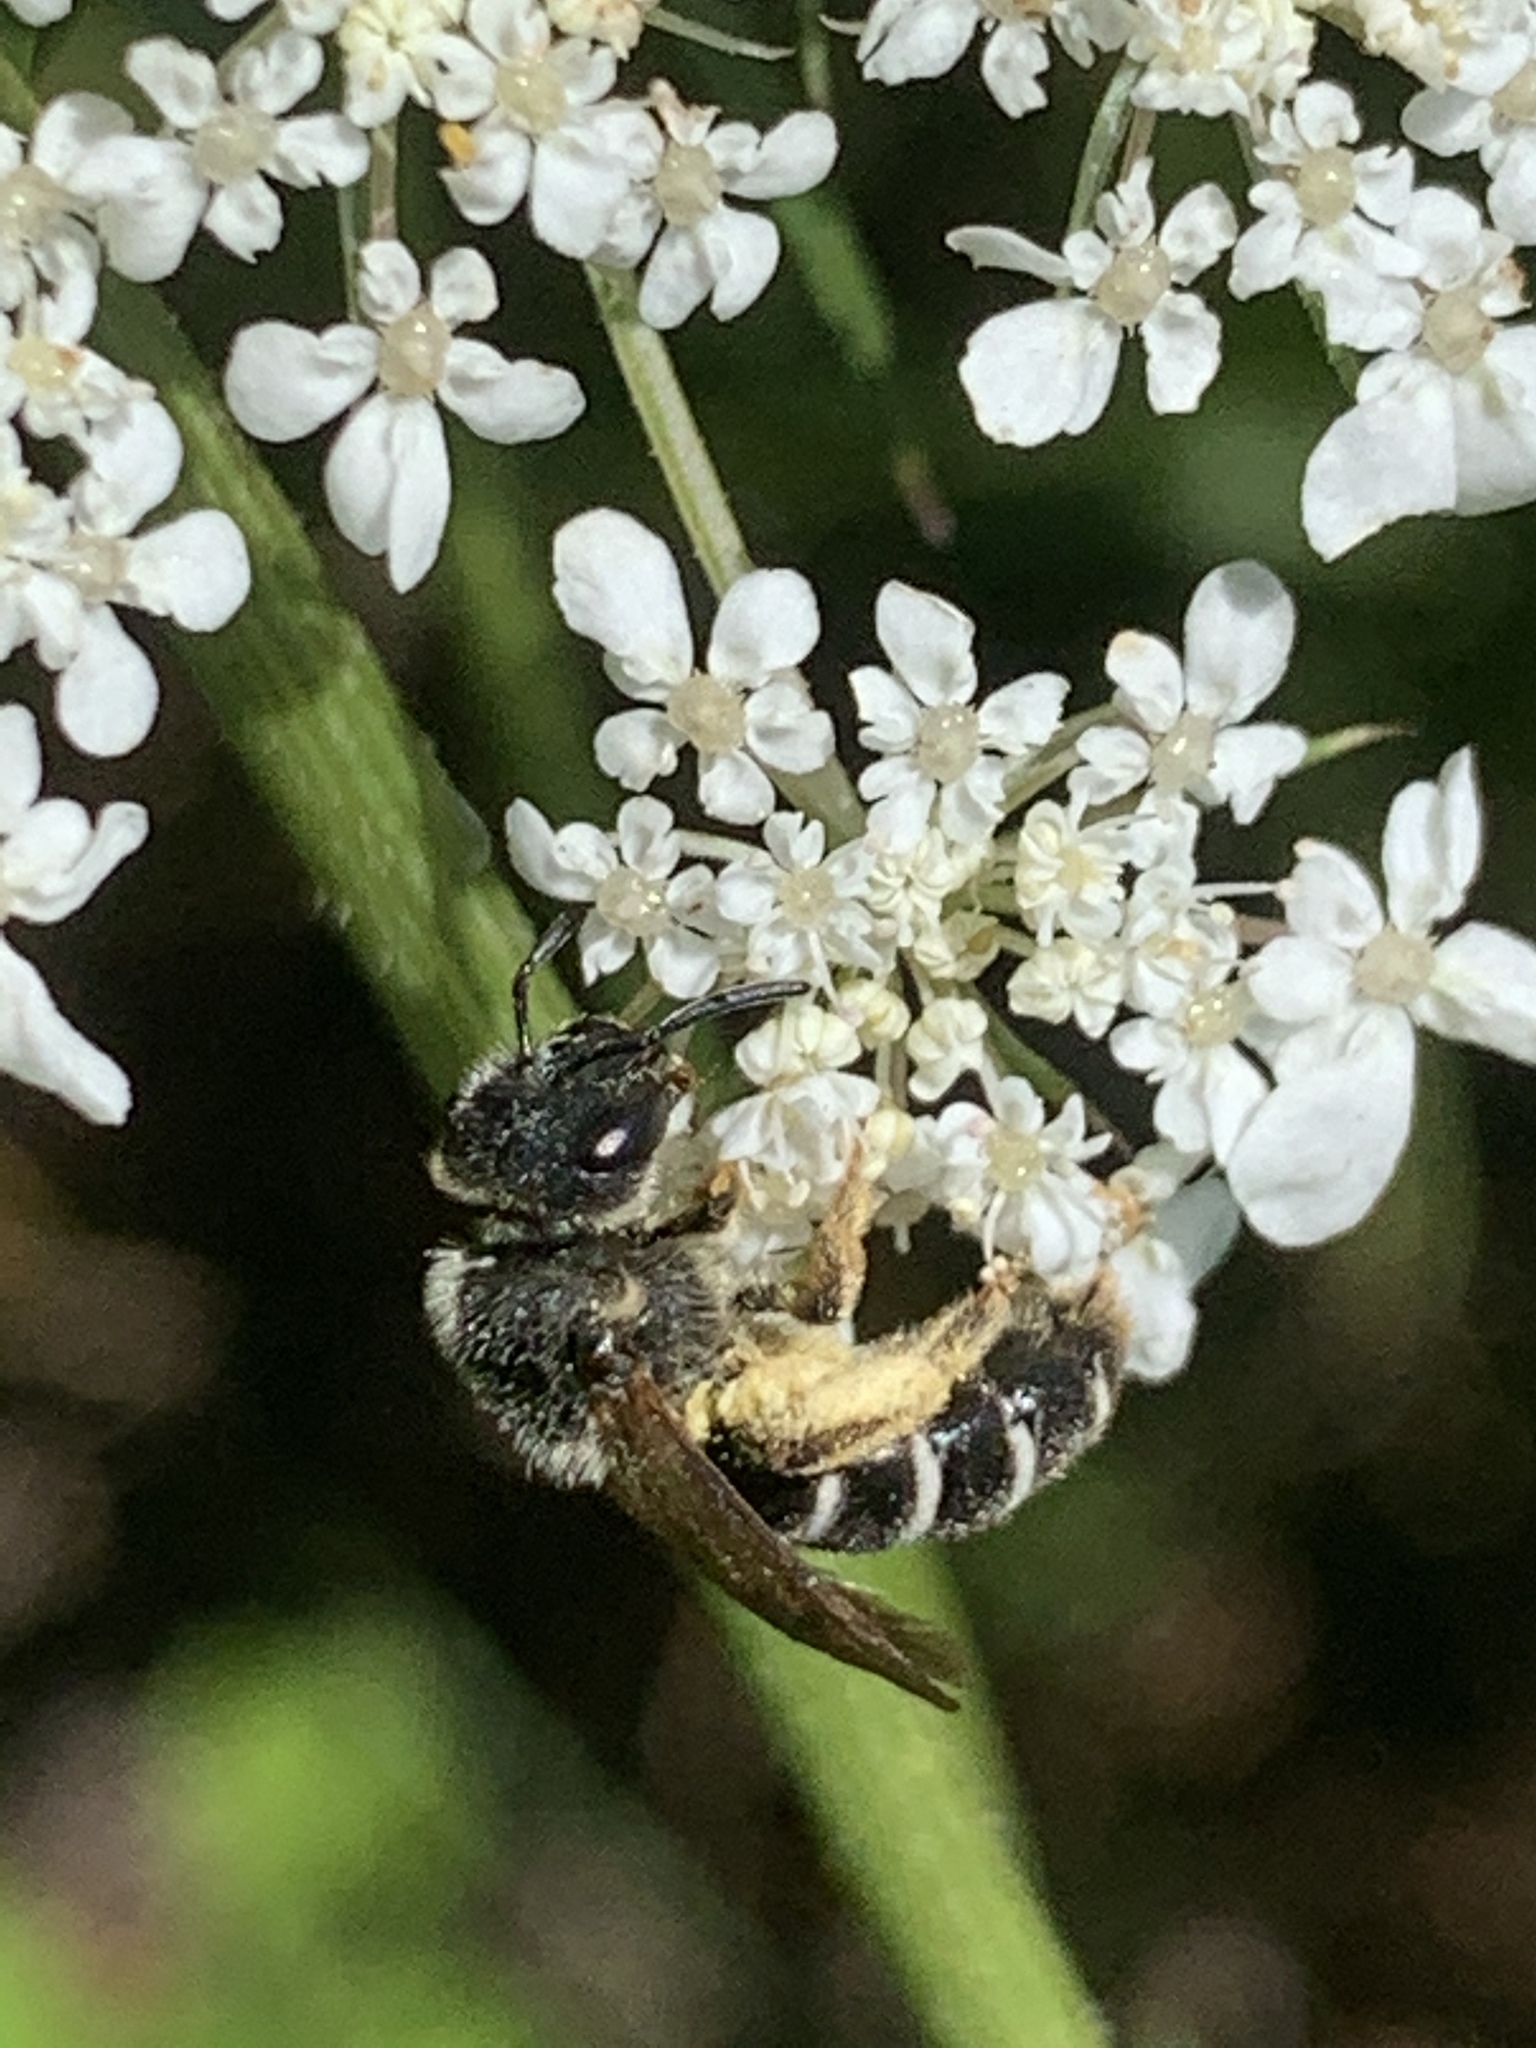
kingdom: Animalia
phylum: Arthropoda
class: Insecta
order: Hymenoptera
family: Halictidae
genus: Halictus
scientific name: Halictus rubicundus
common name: Orange-legged furrow bee
